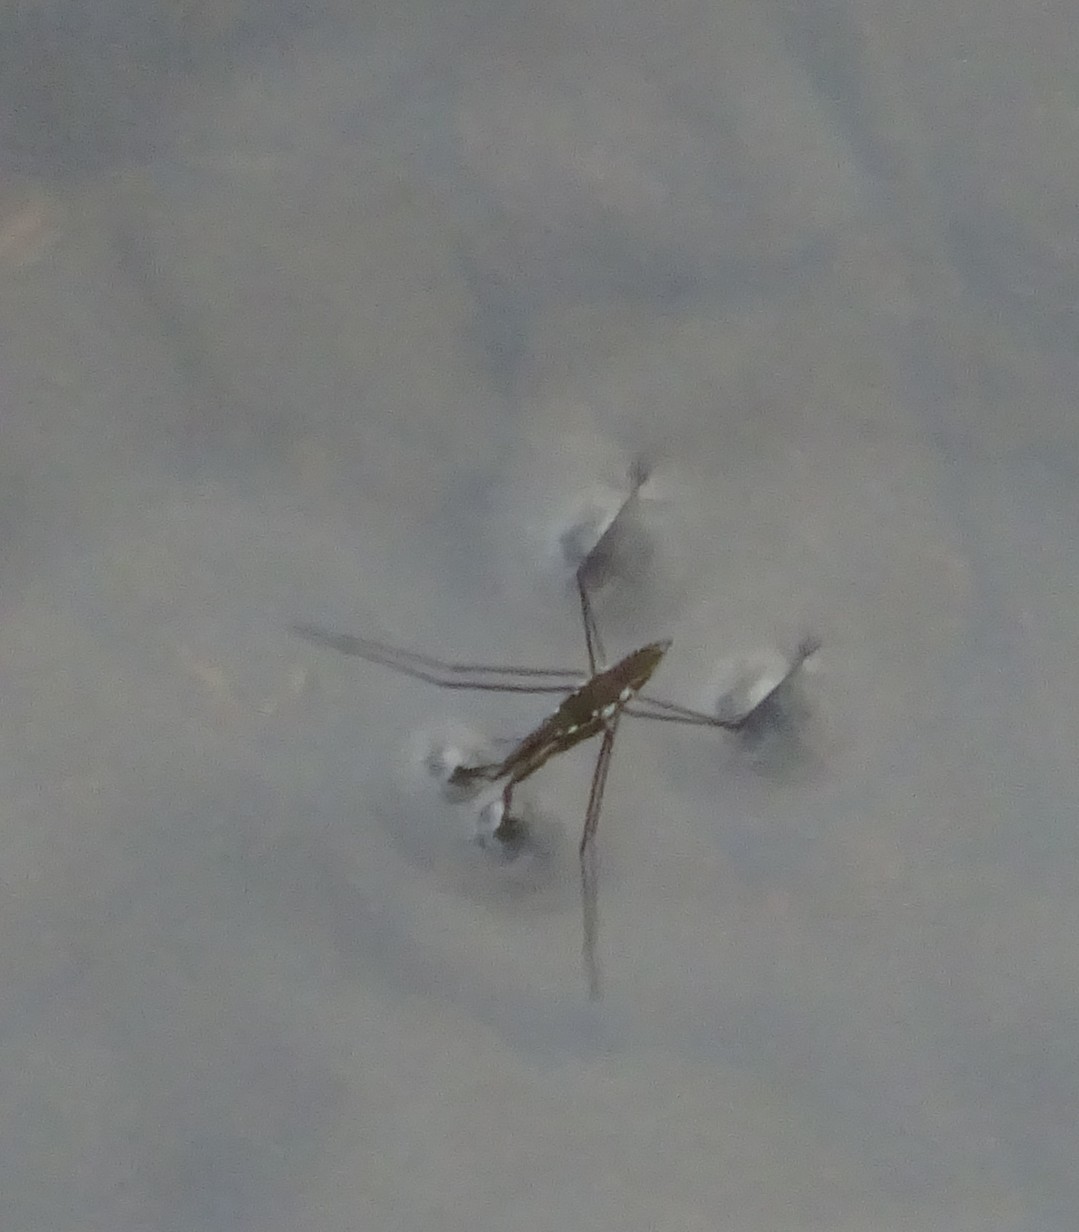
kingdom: Animalia
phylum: Arthropoda
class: Insecta
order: Hemiptera
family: Gerridae
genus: Aquarius
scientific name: Aquarius remigis
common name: Common water strider
